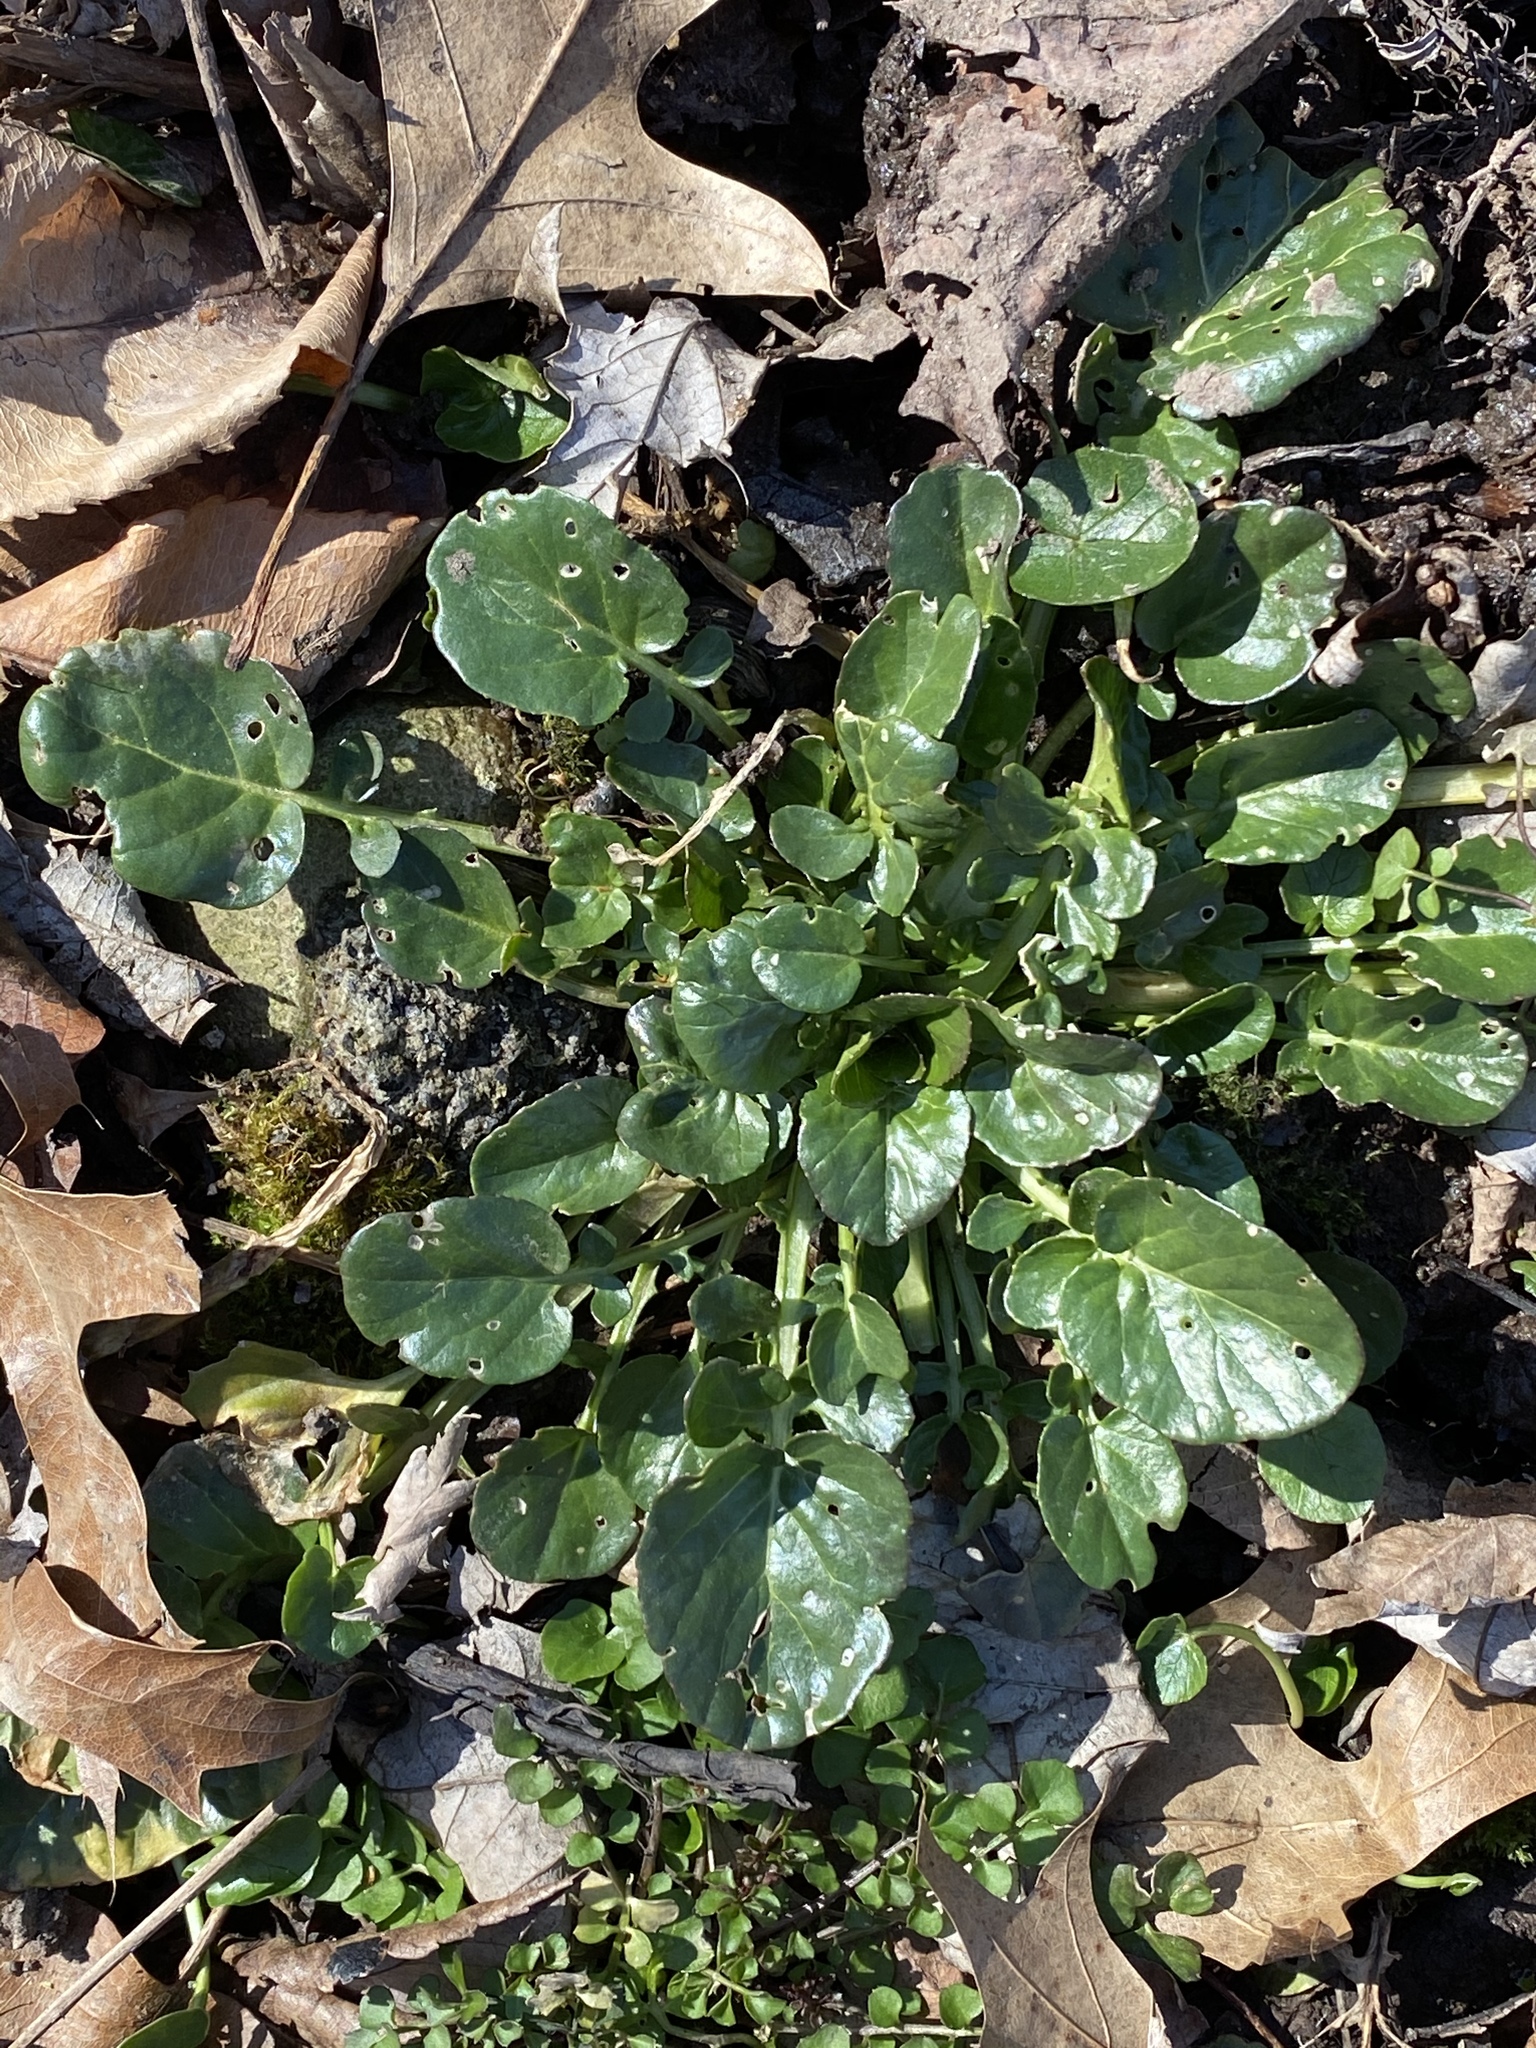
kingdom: Plantae
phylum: Tracheophyta
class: Magnoliopsida
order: Brassicales
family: Brassicaceae
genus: Barbarea
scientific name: Barbarea vulgaris
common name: Cressy-greens
